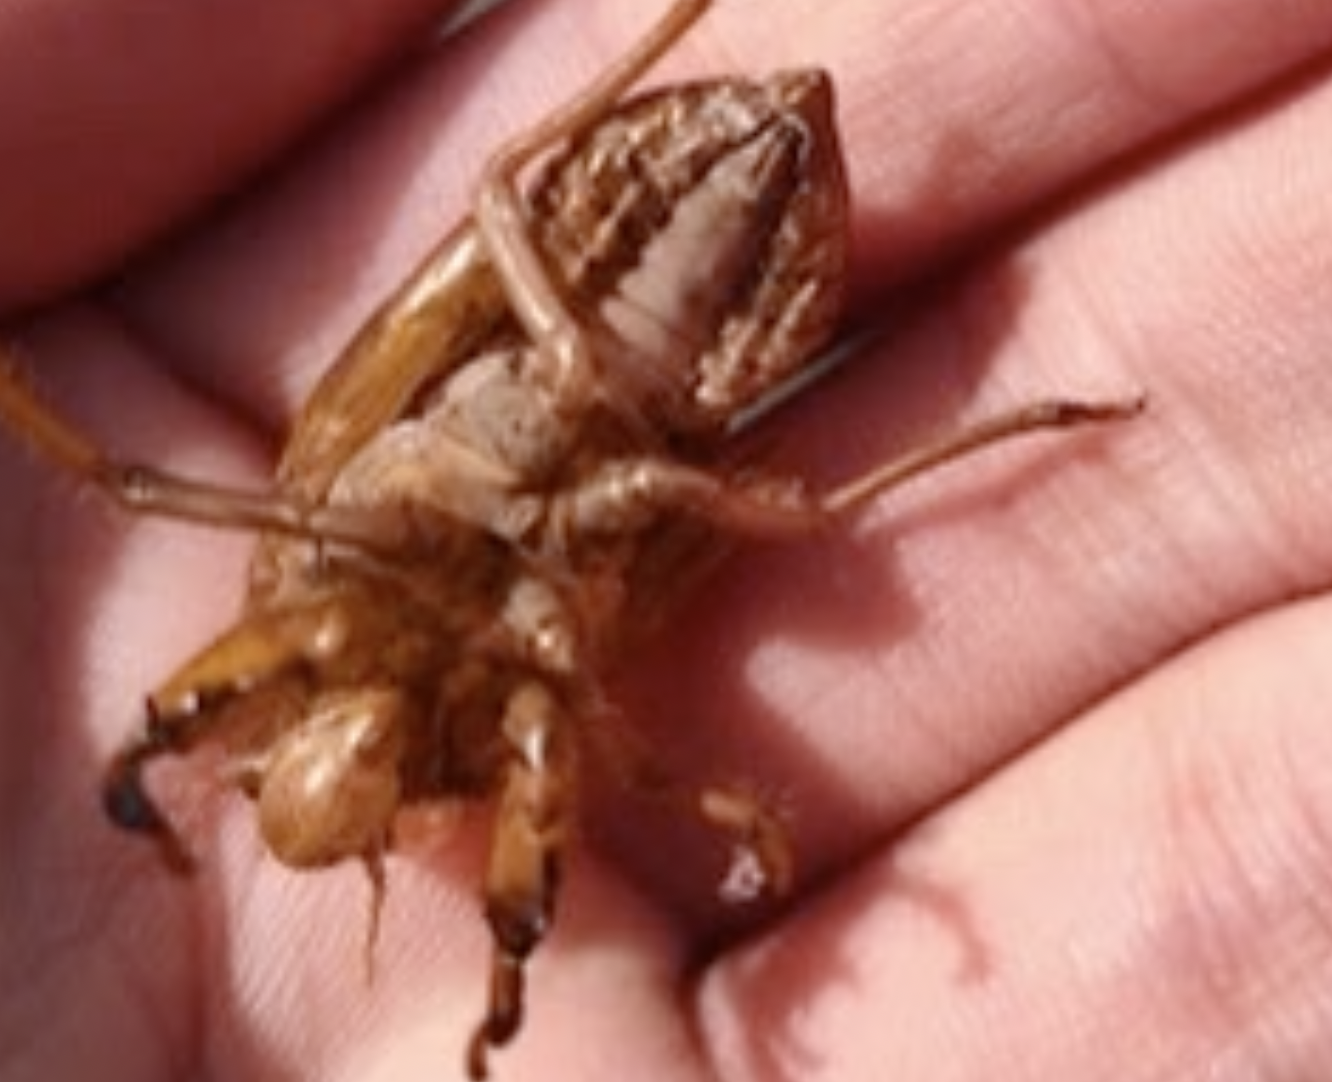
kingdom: Animalia
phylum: Arthropoda
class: Insecta
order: Hemiptera
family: Cicadidae
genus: Graptopsaltria
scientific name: Graptopsaltria nigrofuscata
